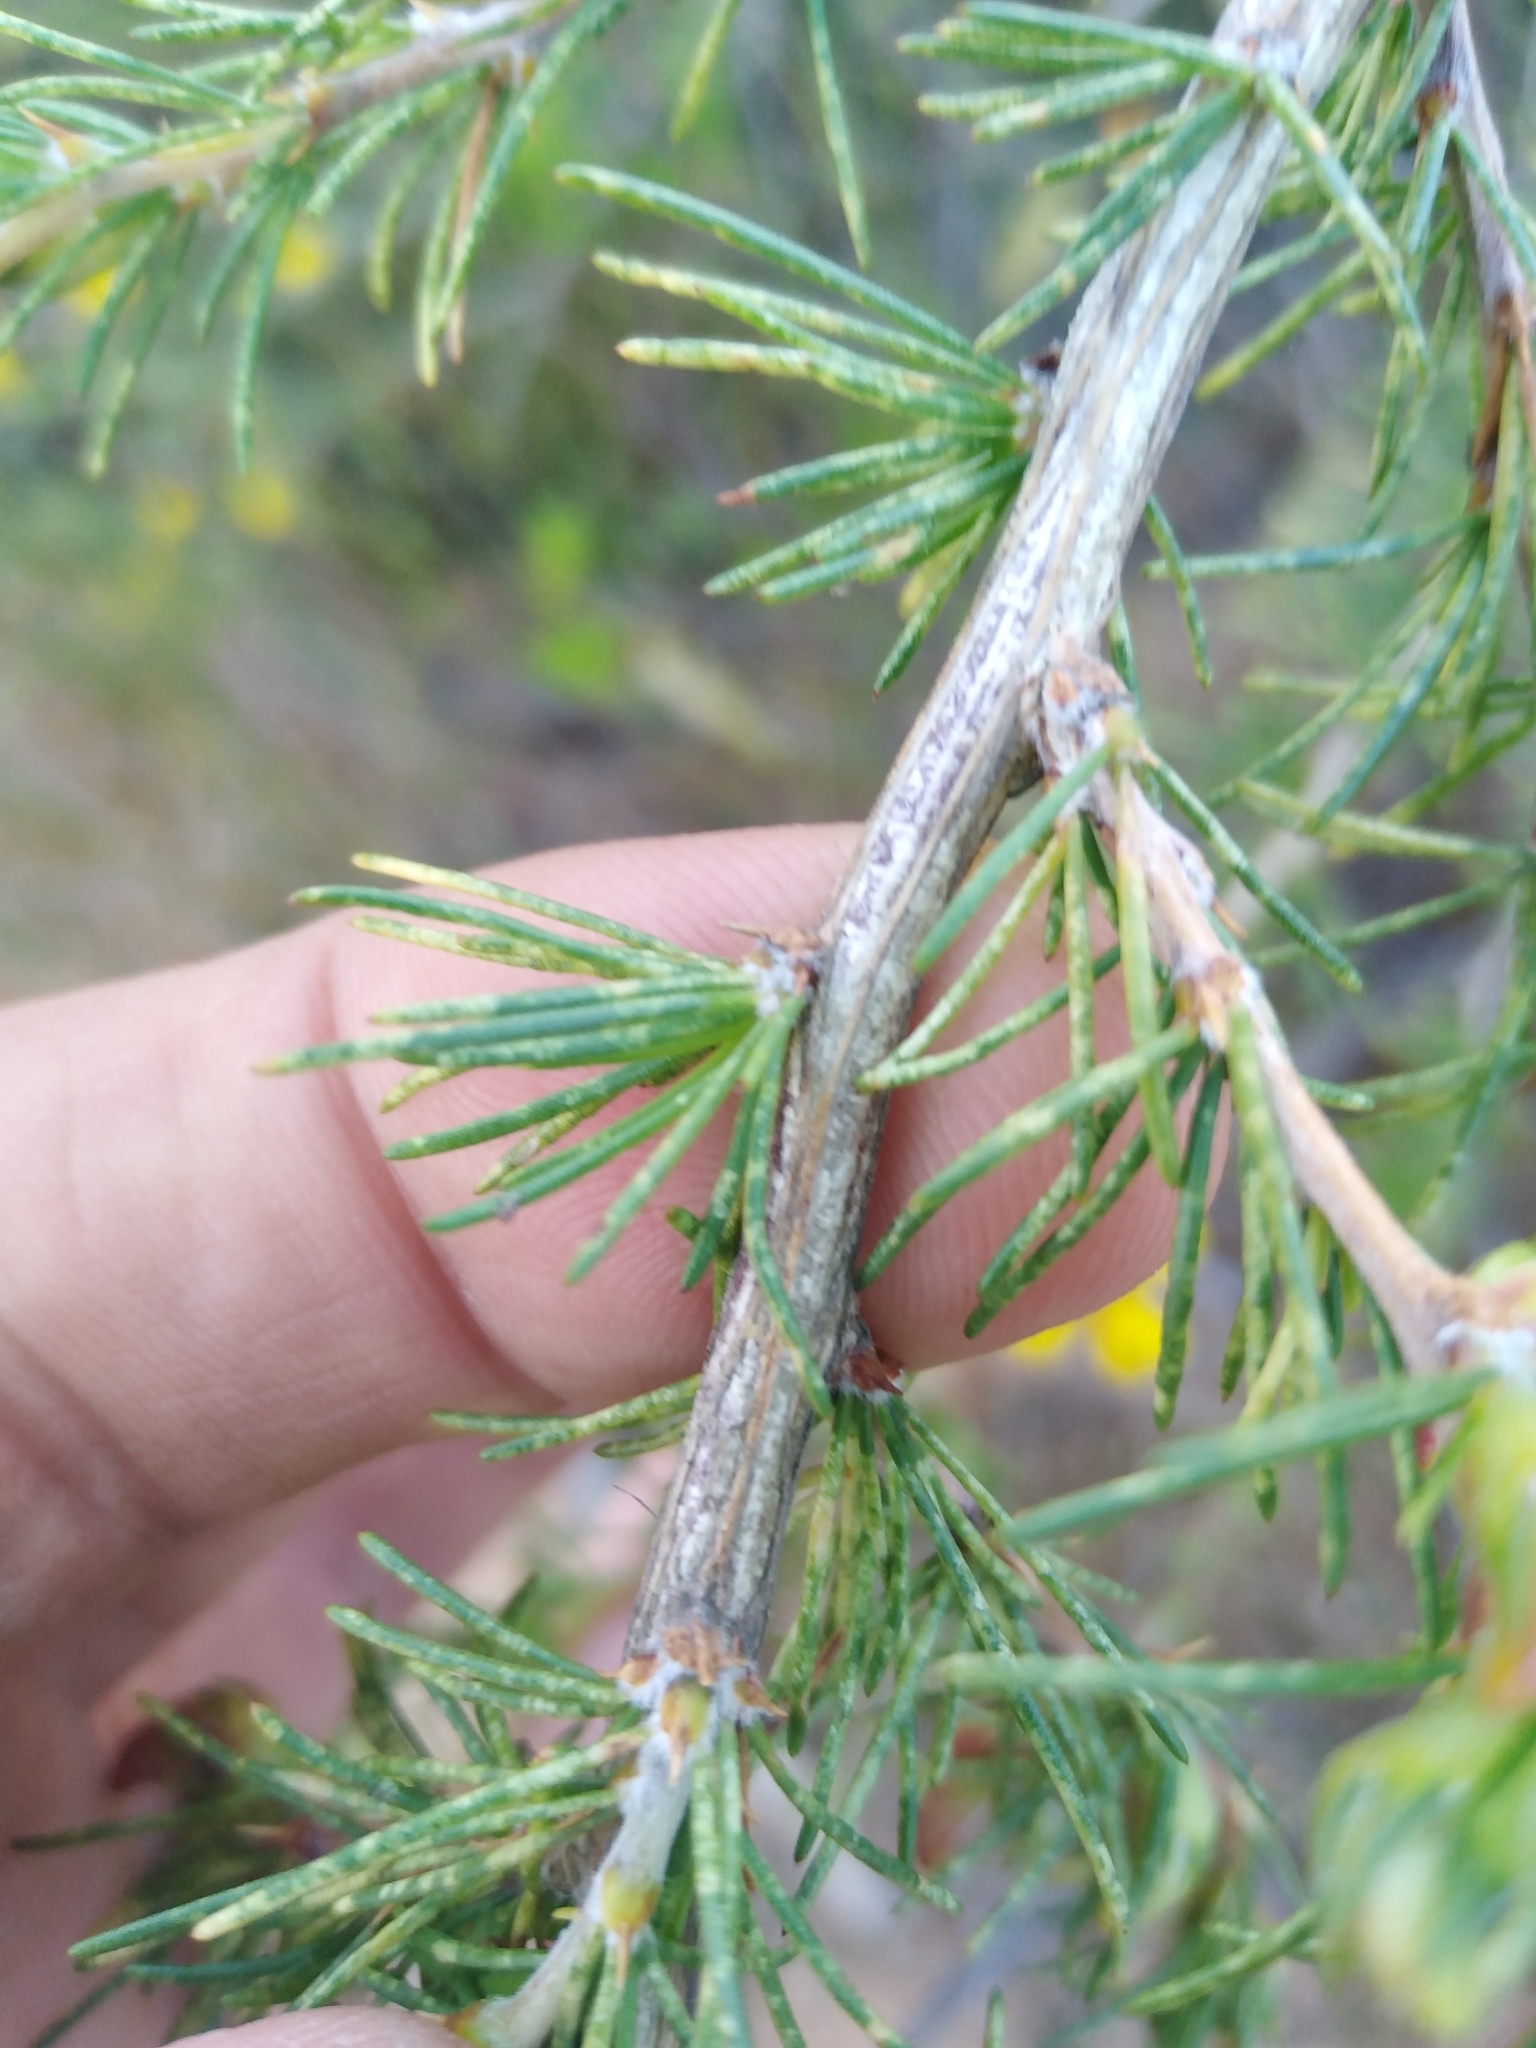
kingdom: Plantae
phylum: Tracheophyta
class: Magnoliopsida
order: Fabales
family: Fabaceae
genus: Aspalathus
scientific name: Aspalathus uniflora
